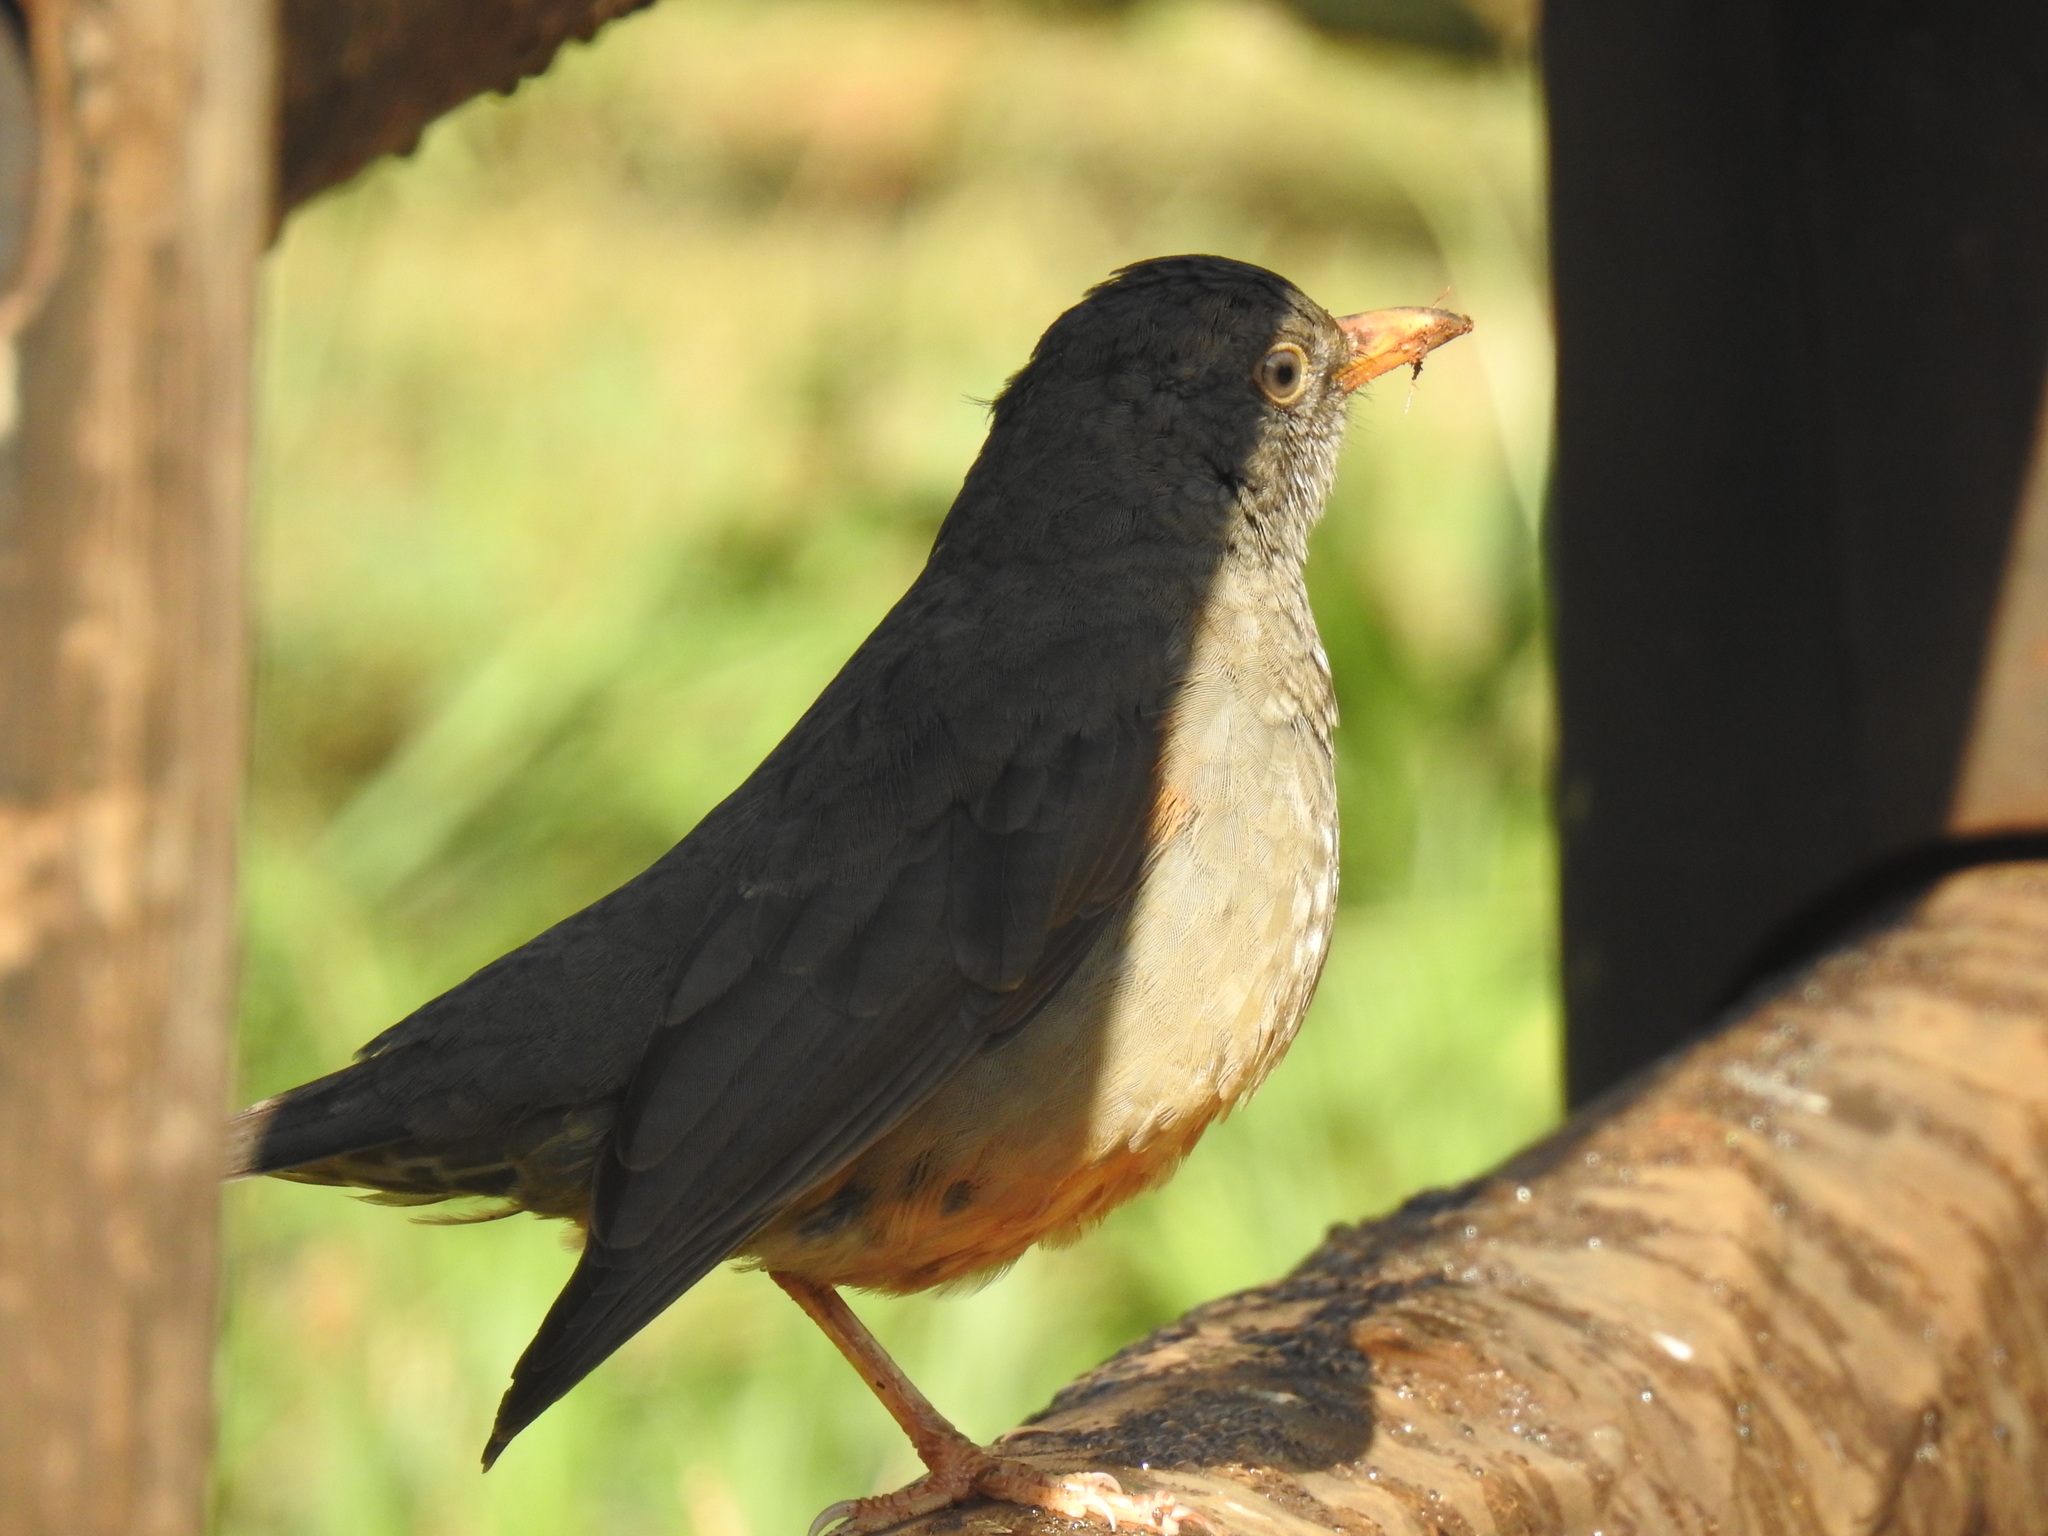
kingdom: Animalia
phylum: Chordata
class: Aves
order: Passeriformes
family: Turdidae
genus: Turdus
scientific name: Turdus smithi
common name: Karoo thrush
